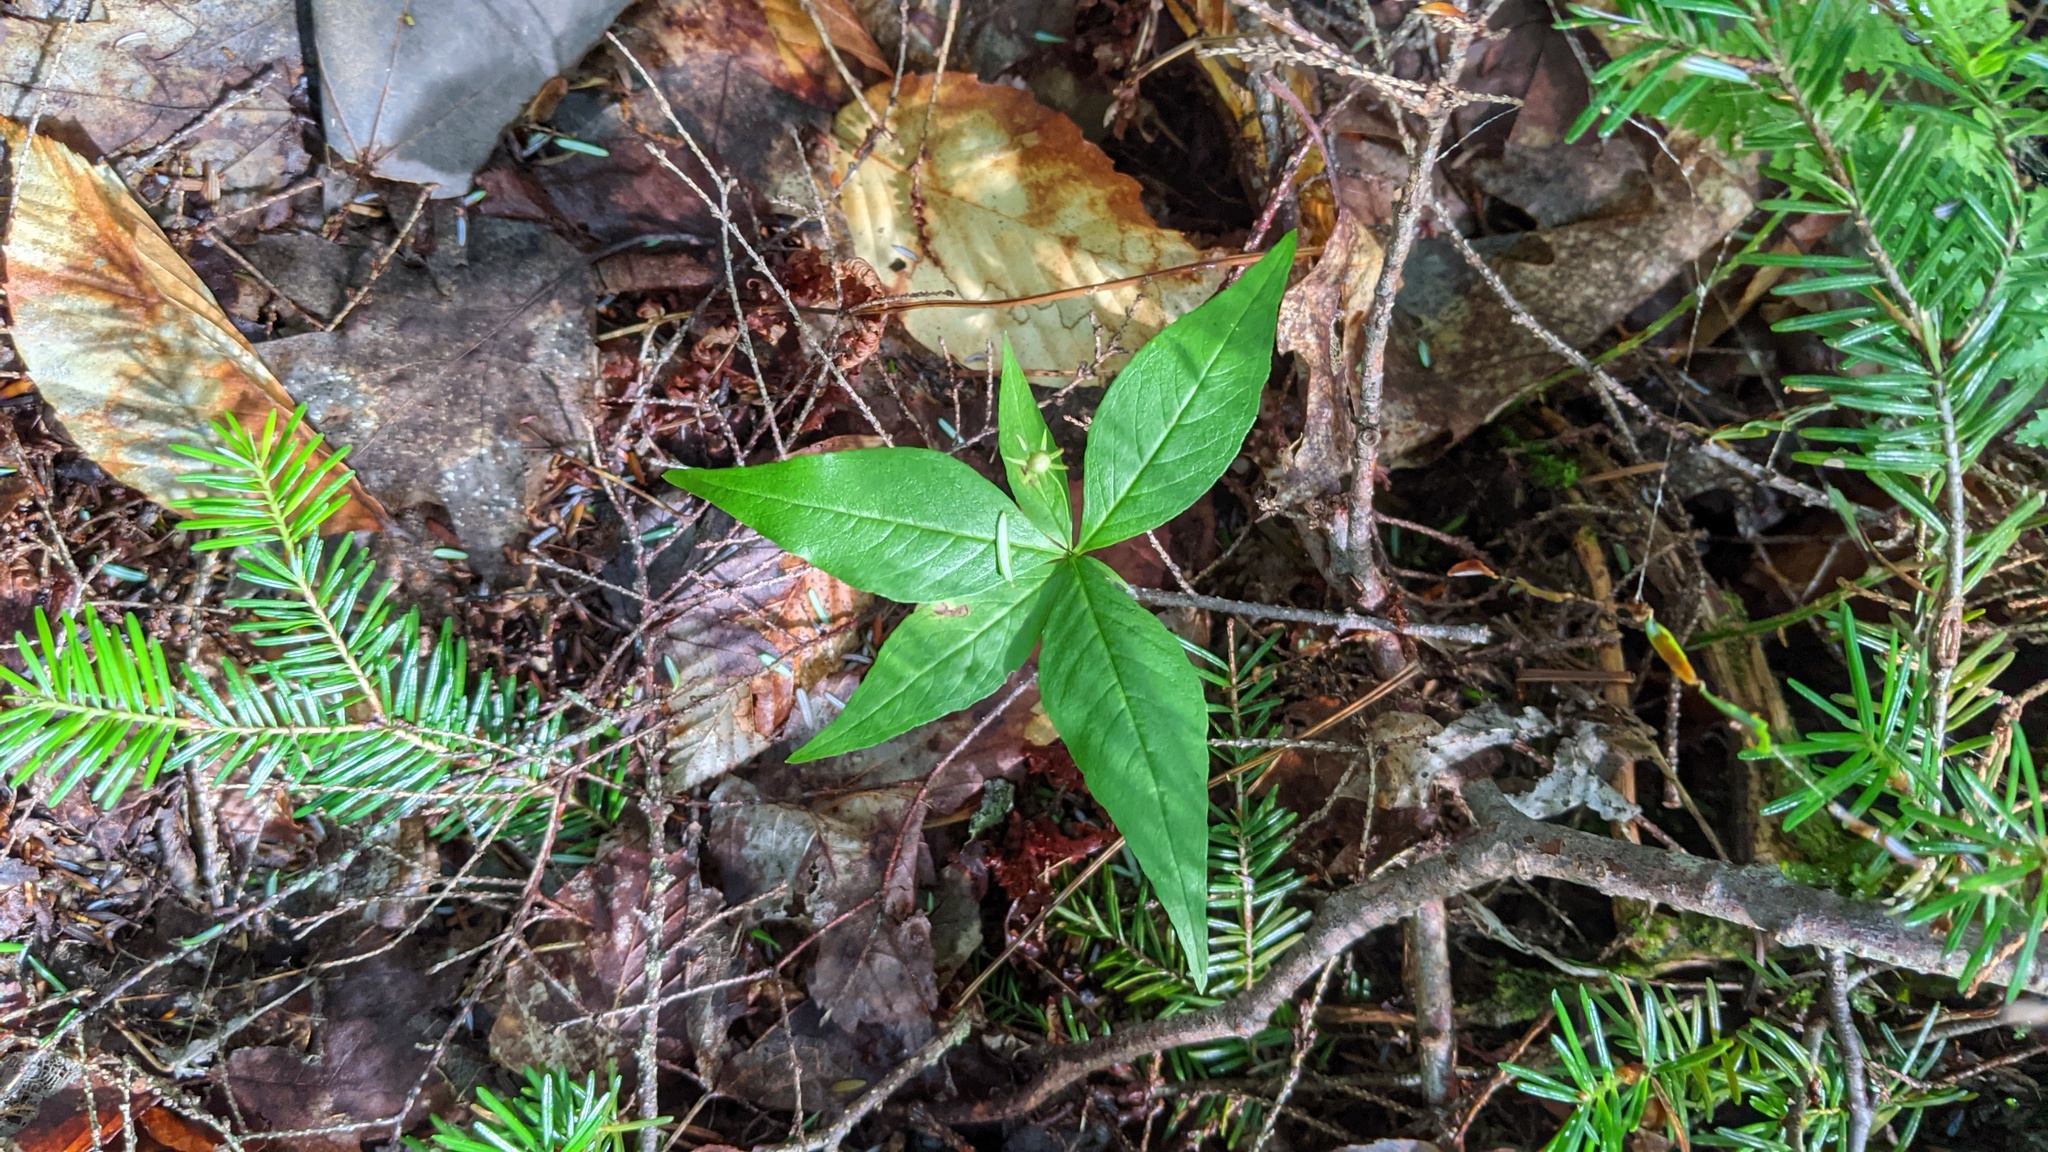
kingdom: Plantae
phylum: Tracheophyta
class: Magnoliopsida
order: Ericales
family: Primulaceae
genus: Lysimachia
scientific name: Lysimachia borealis
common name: American starflower
